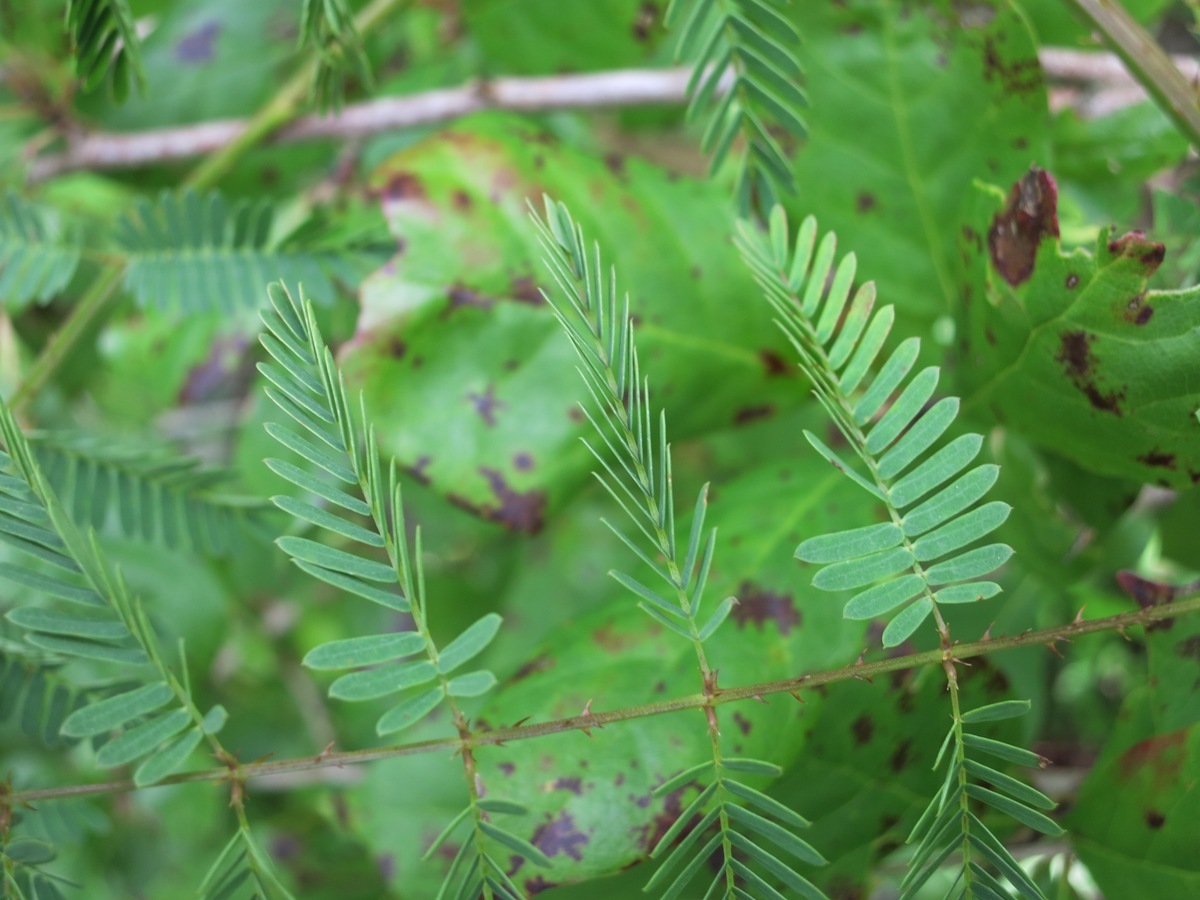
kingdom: Plantae
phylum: Tracheophyta
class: Magnoliopsida
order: Fabales
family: Fabaceae
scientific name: Fabaceae
